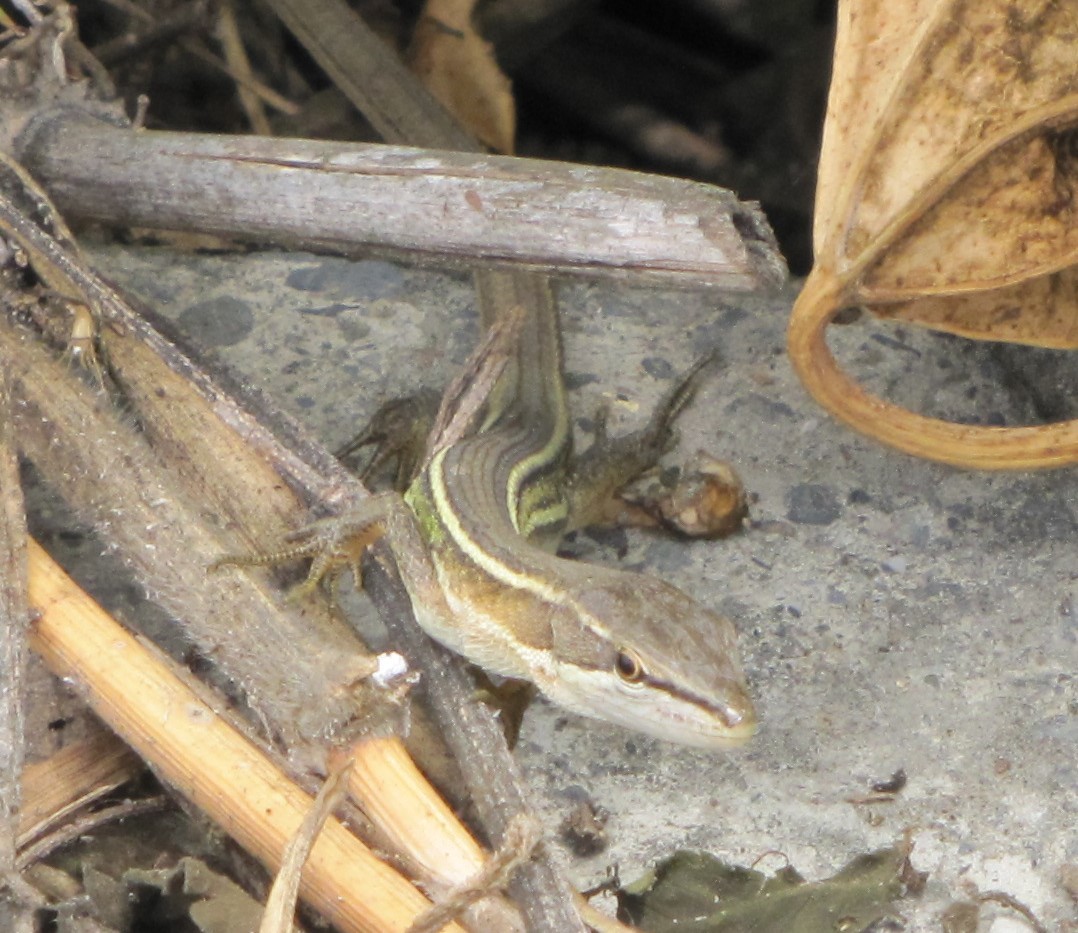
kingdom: Animalia
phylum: Chordata
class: Squamata
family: Lacertidae
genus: Takydromus
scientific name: Takydromus formosanus
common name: Formosa grass lizard
